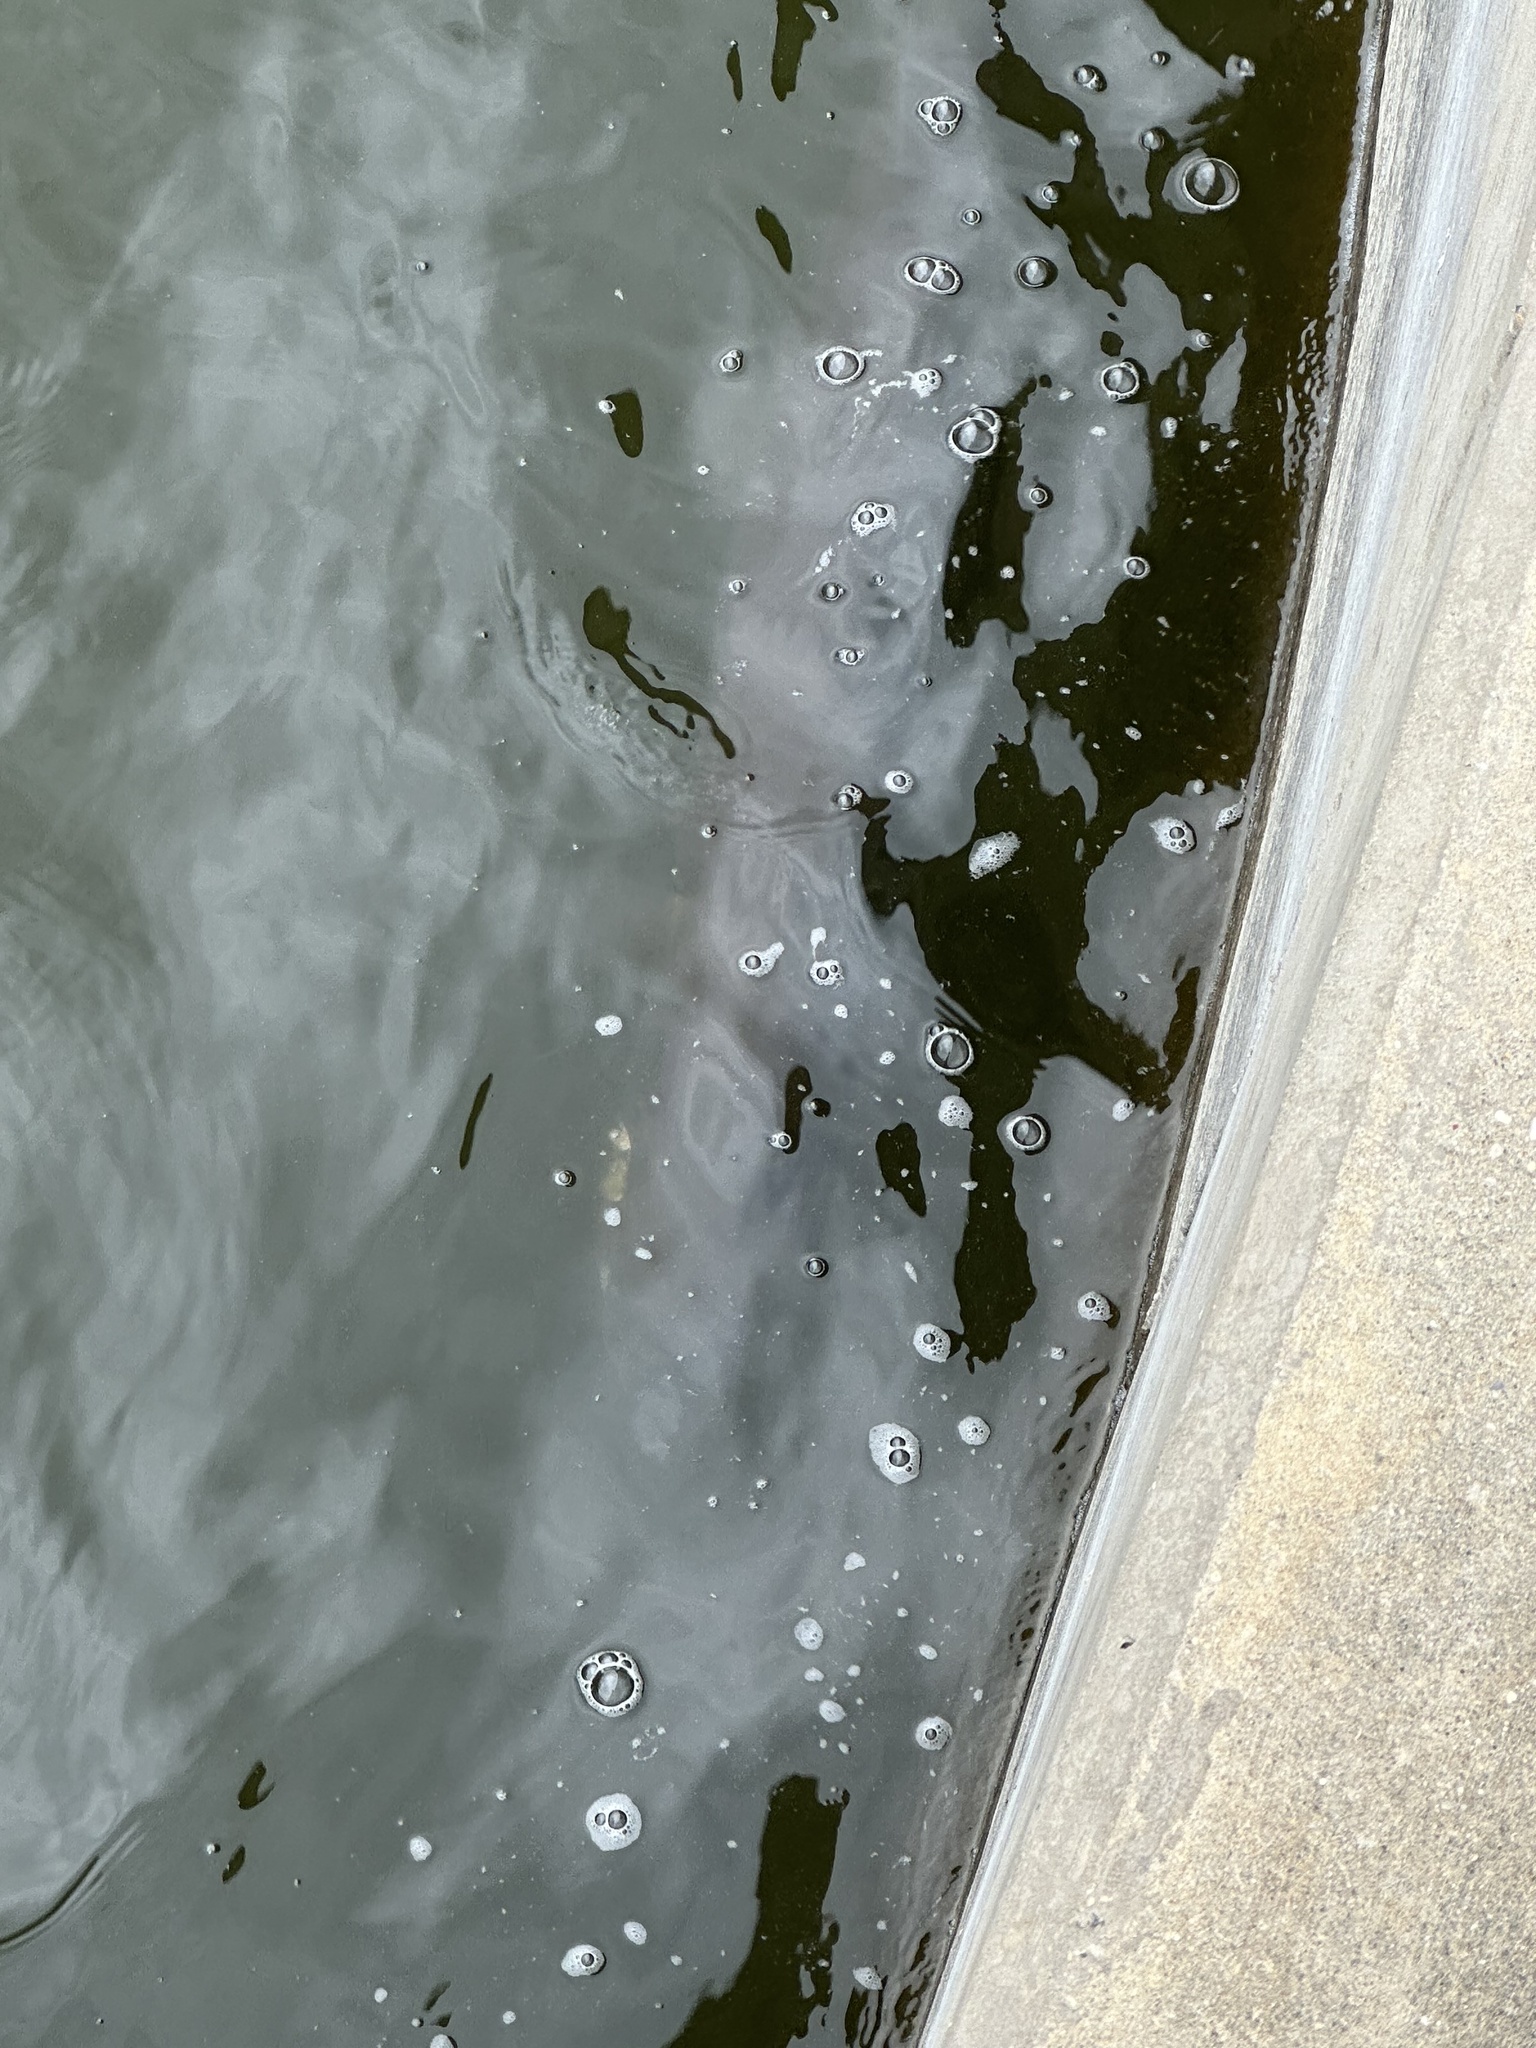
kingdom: Animalia
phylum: Chordata
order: Esociformes
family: Esocidae
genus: Esox
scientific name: Esox masquinongy
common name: Muskellunge
